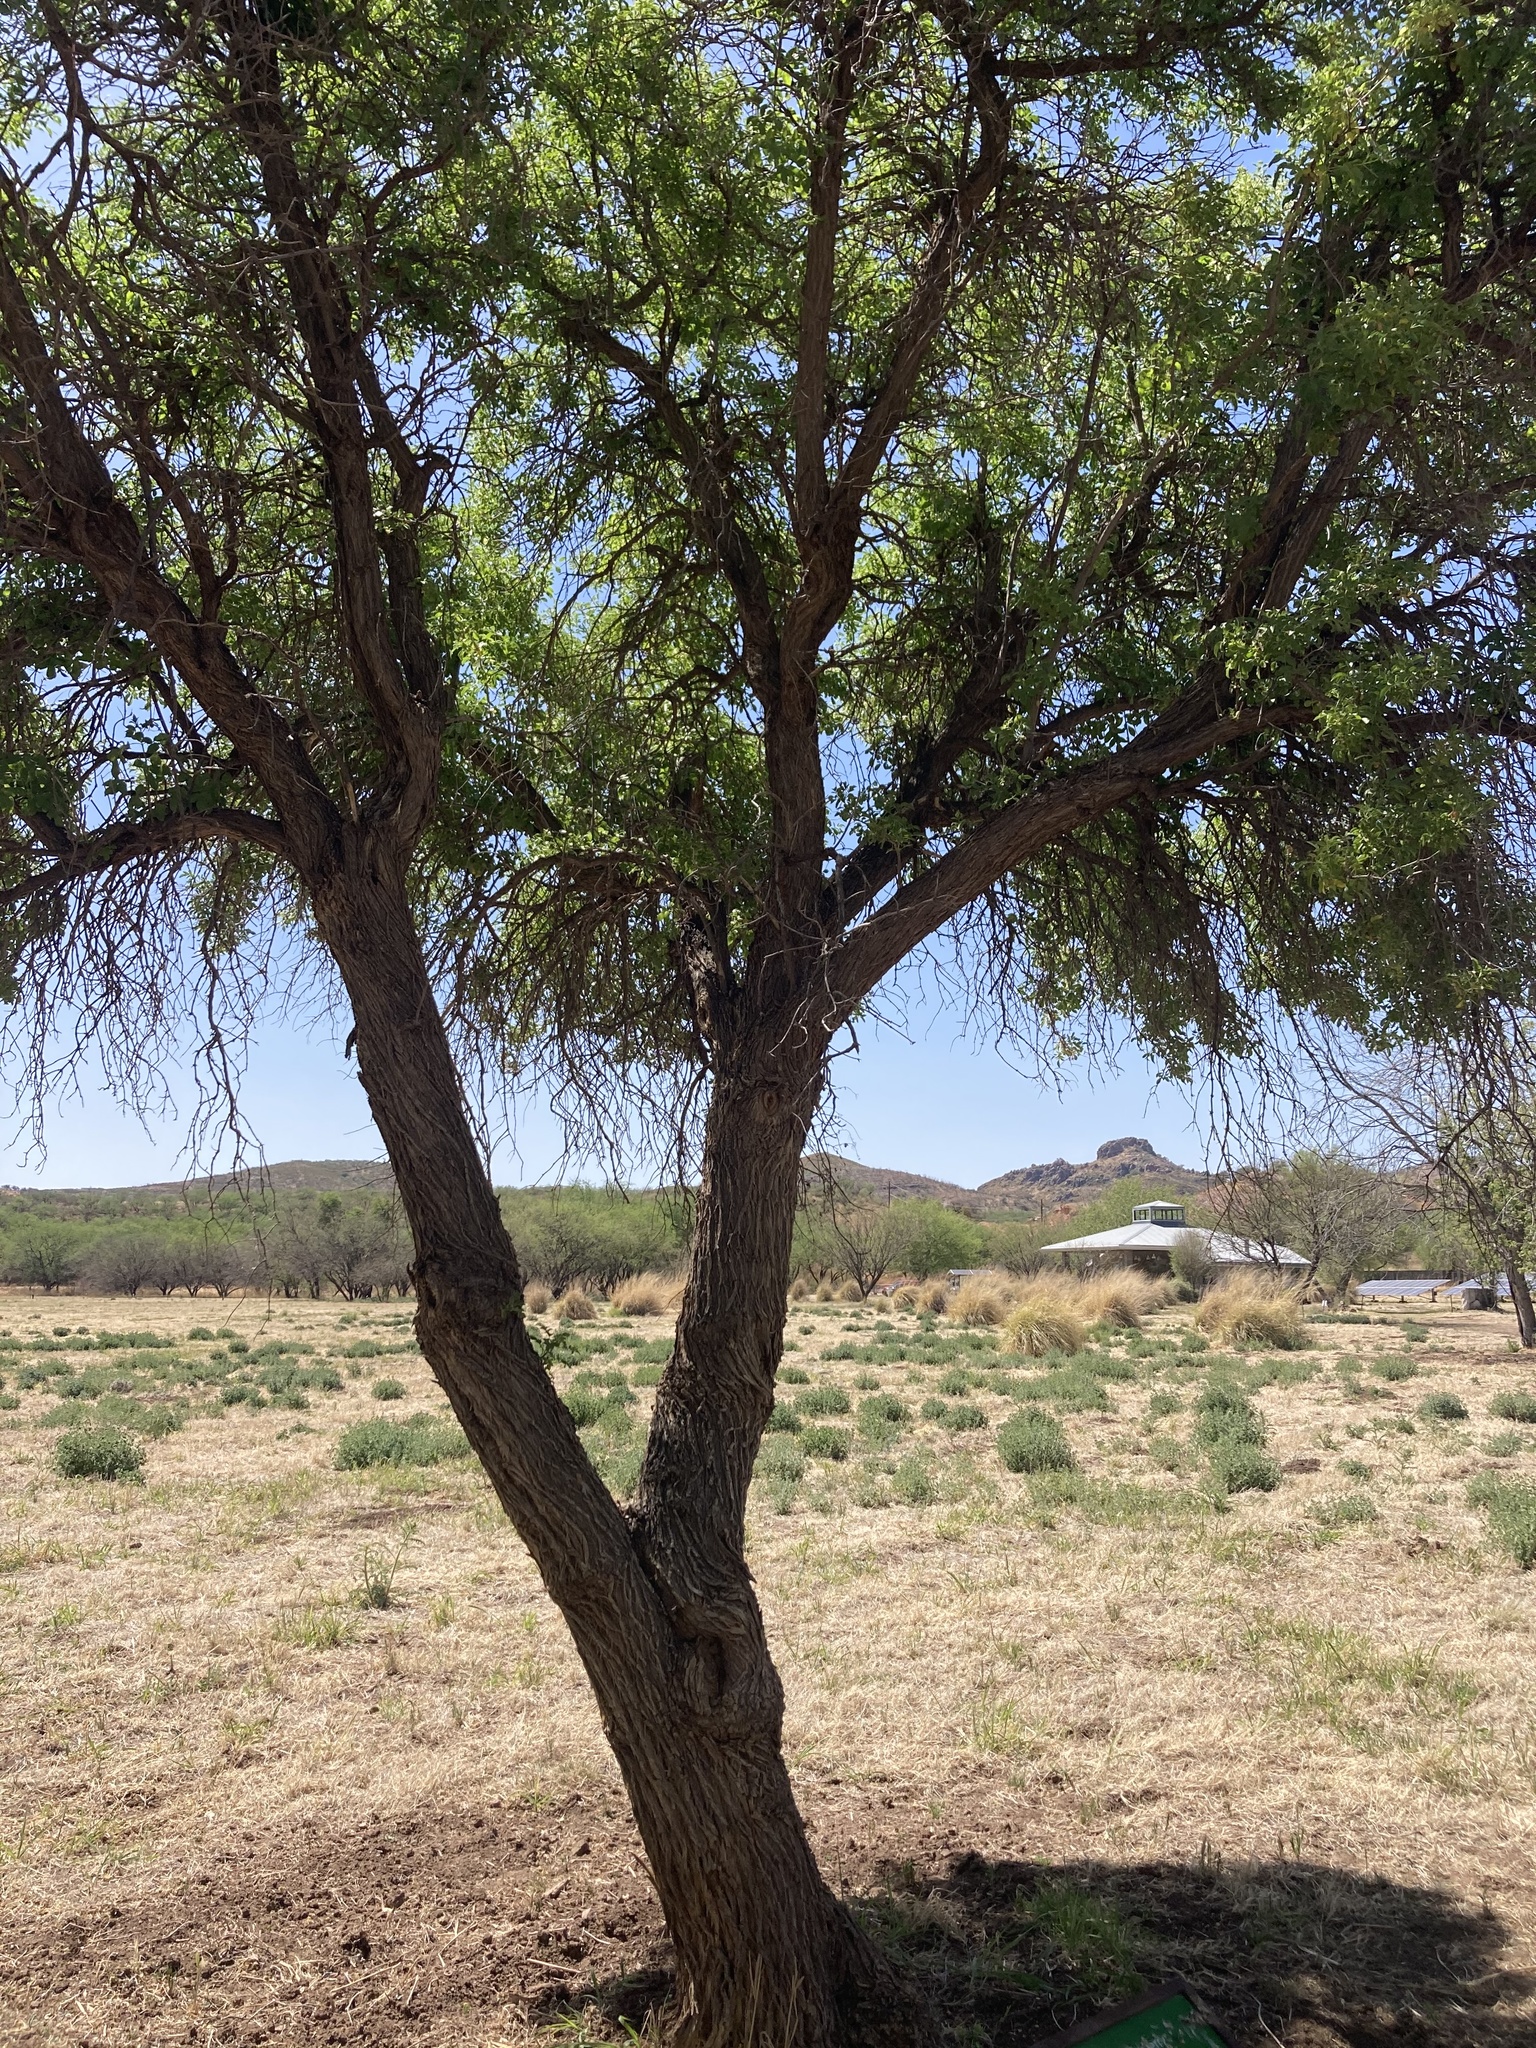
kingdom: Plantae
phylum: Tracheophyta
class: Magnoliopsida
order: Dipsacales
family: Viburnaceae
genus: Sambucus
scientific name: Sambucus cerulea
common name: Blue elder
